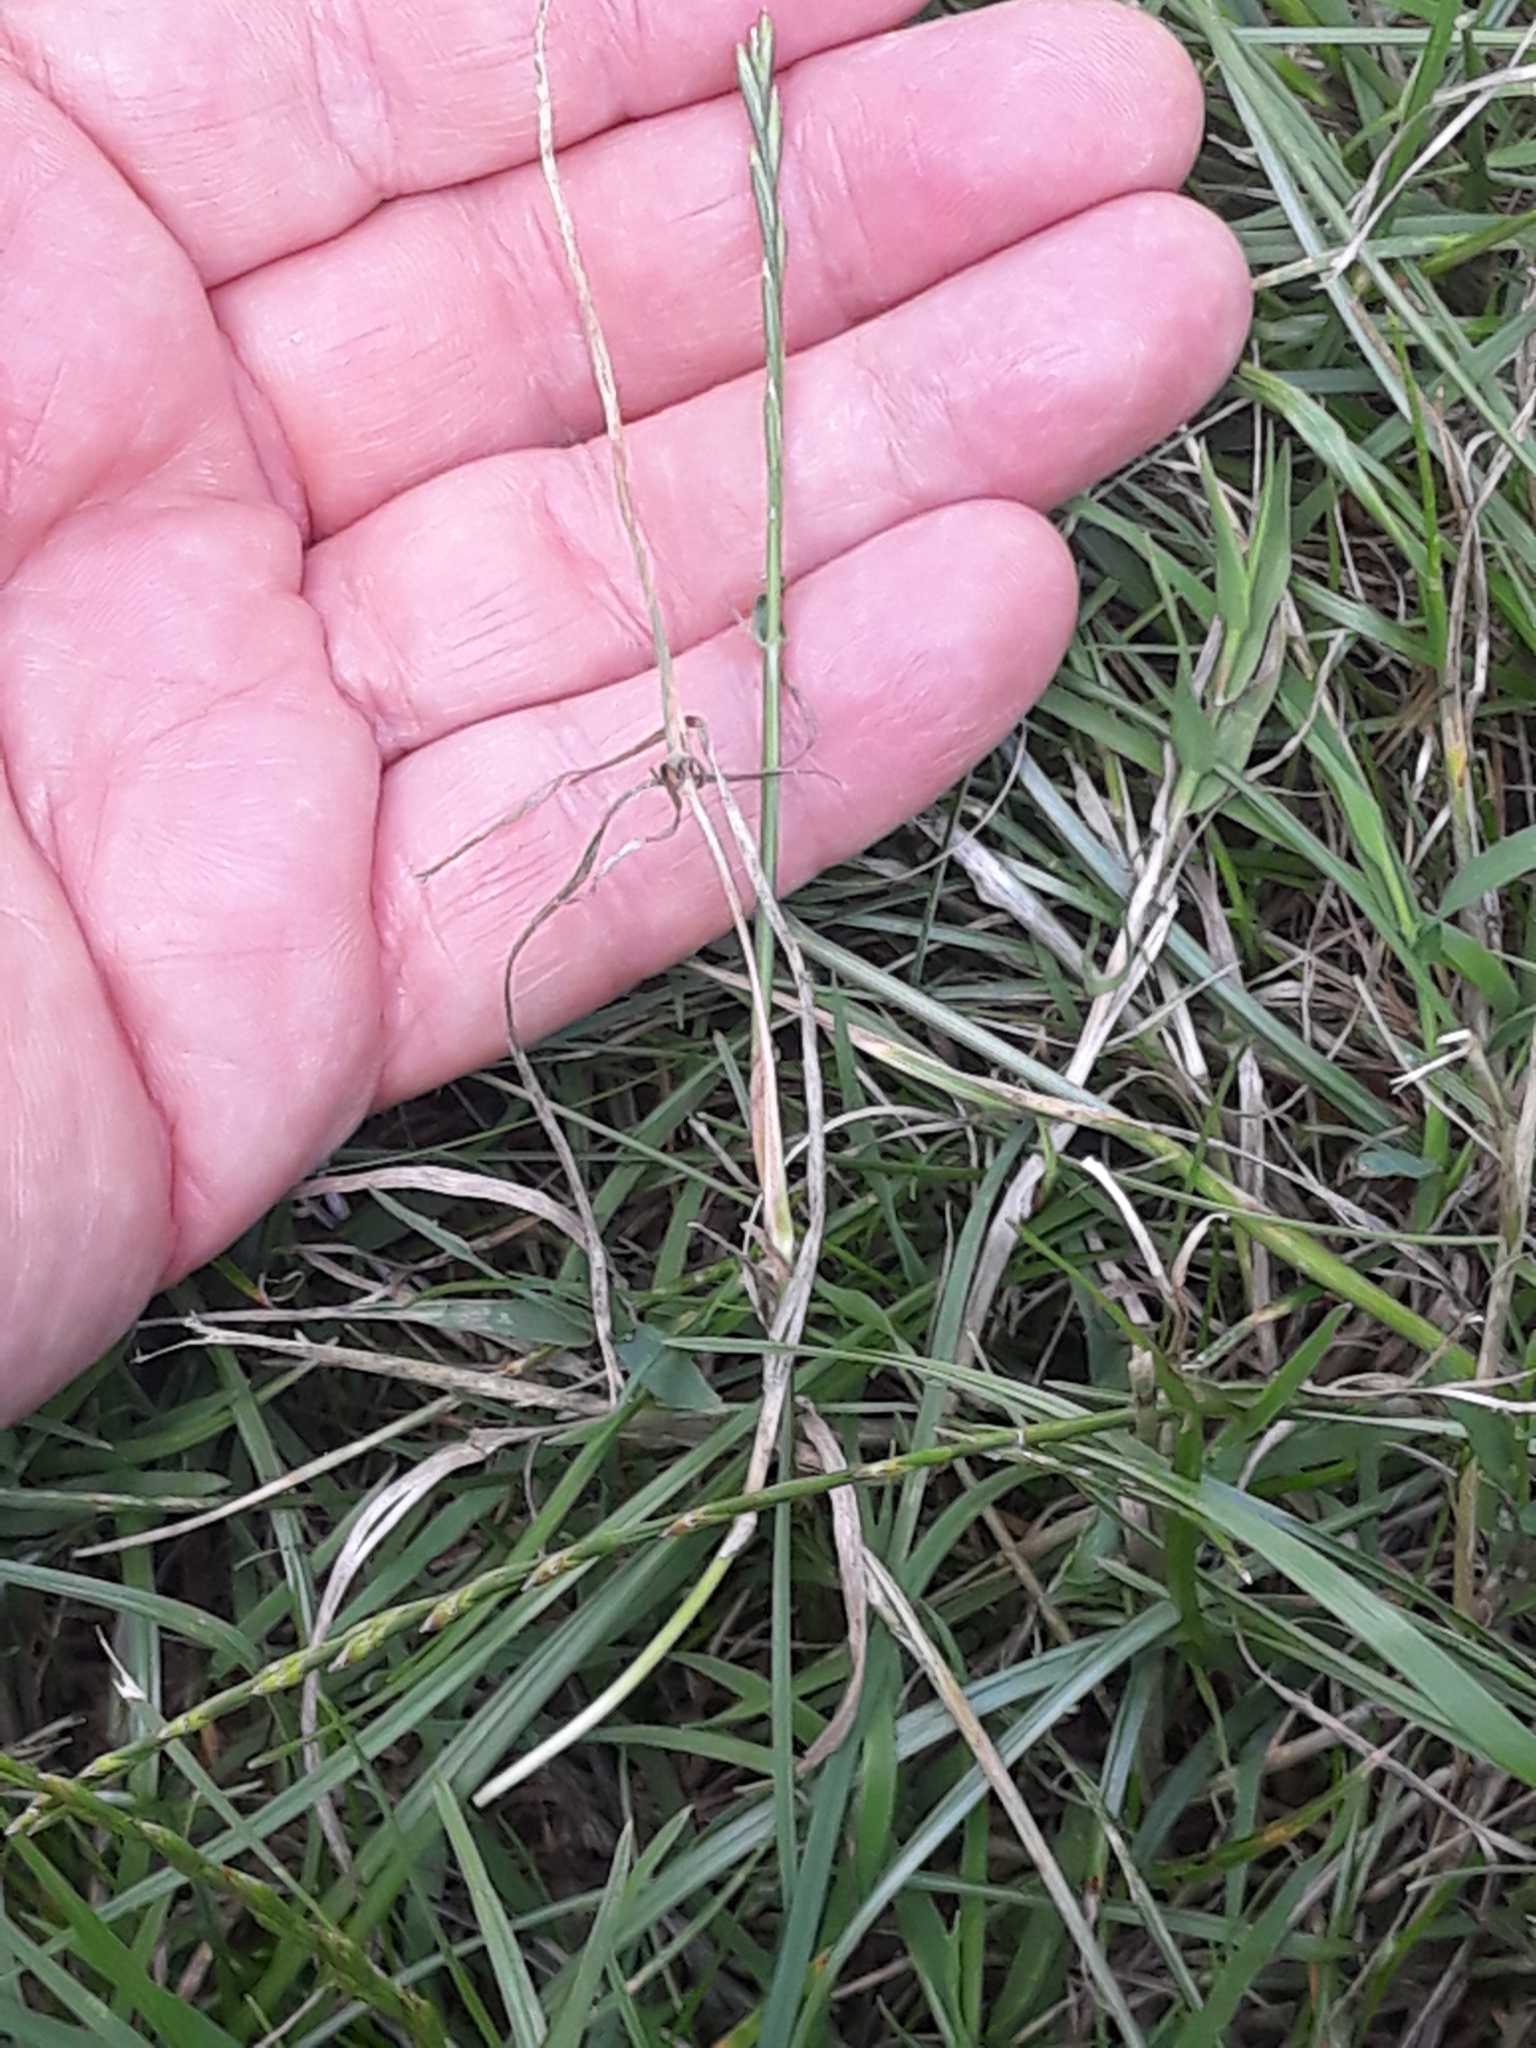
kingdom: Plantae
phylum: Tracheophyta
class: Liliopsida
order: Poales
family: Poaceae
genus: Lolium
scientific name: Lolium perenne
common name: Perennial ryegrass
